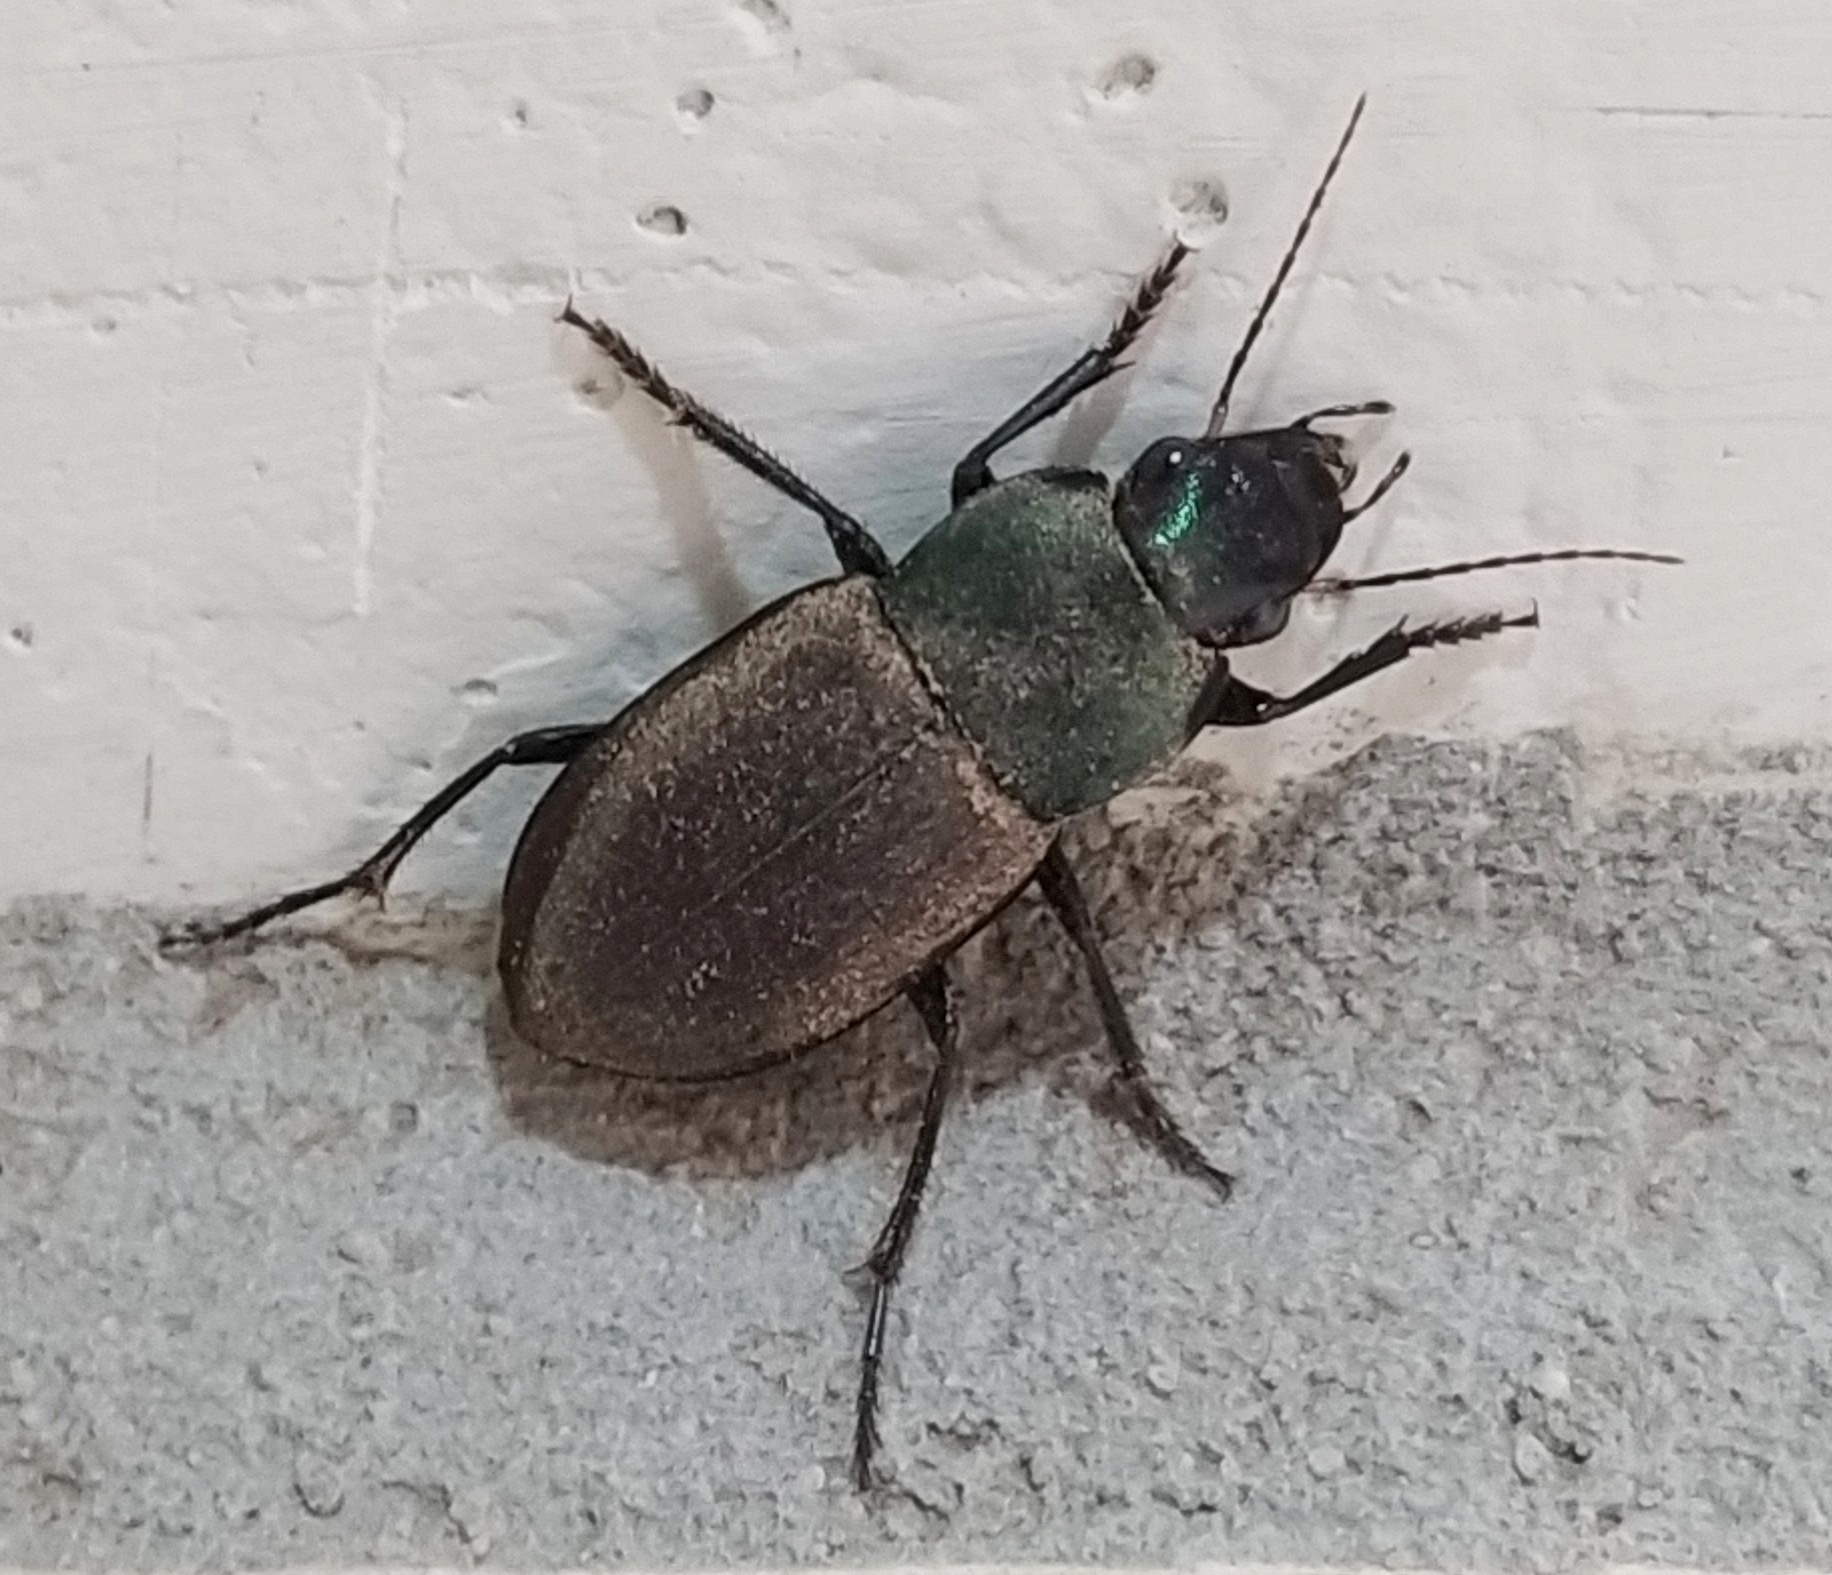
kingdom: Animalia
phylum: Arthropoda
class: Insecta
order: Coleoptera
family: Carabidae
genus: Neoaulacoryssus
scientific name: Neoaulacoryssus speciosus
